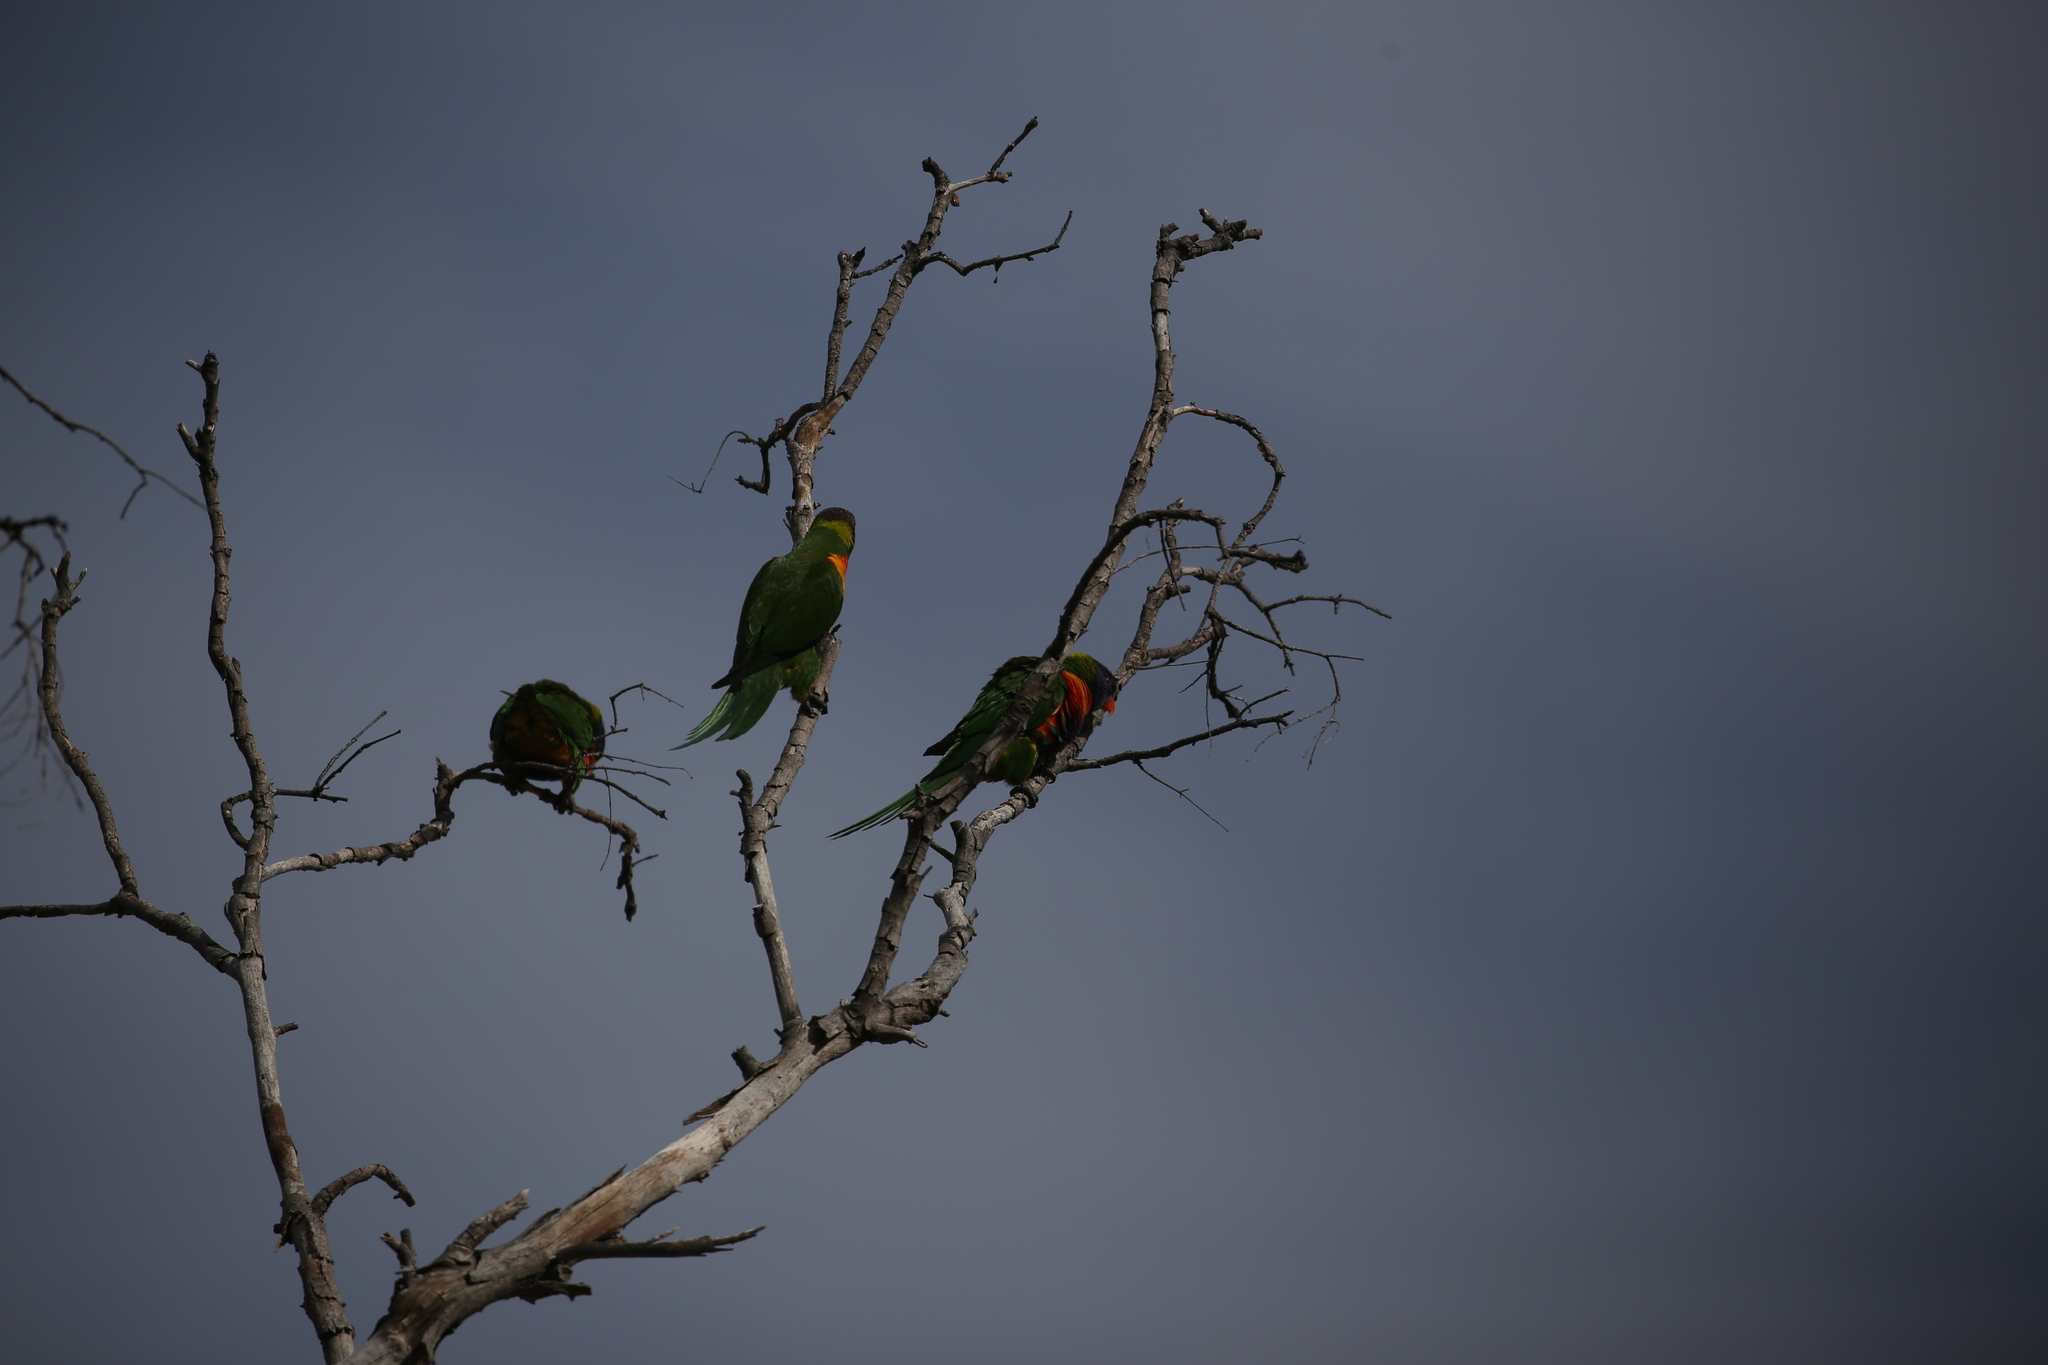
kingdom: Animalia
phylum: Chordata
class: Aves
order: Psittaciformes
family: Psittacidae
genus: Trichoglossus
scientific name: Trichoglossus haematodus
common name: Coconut lorikeet
